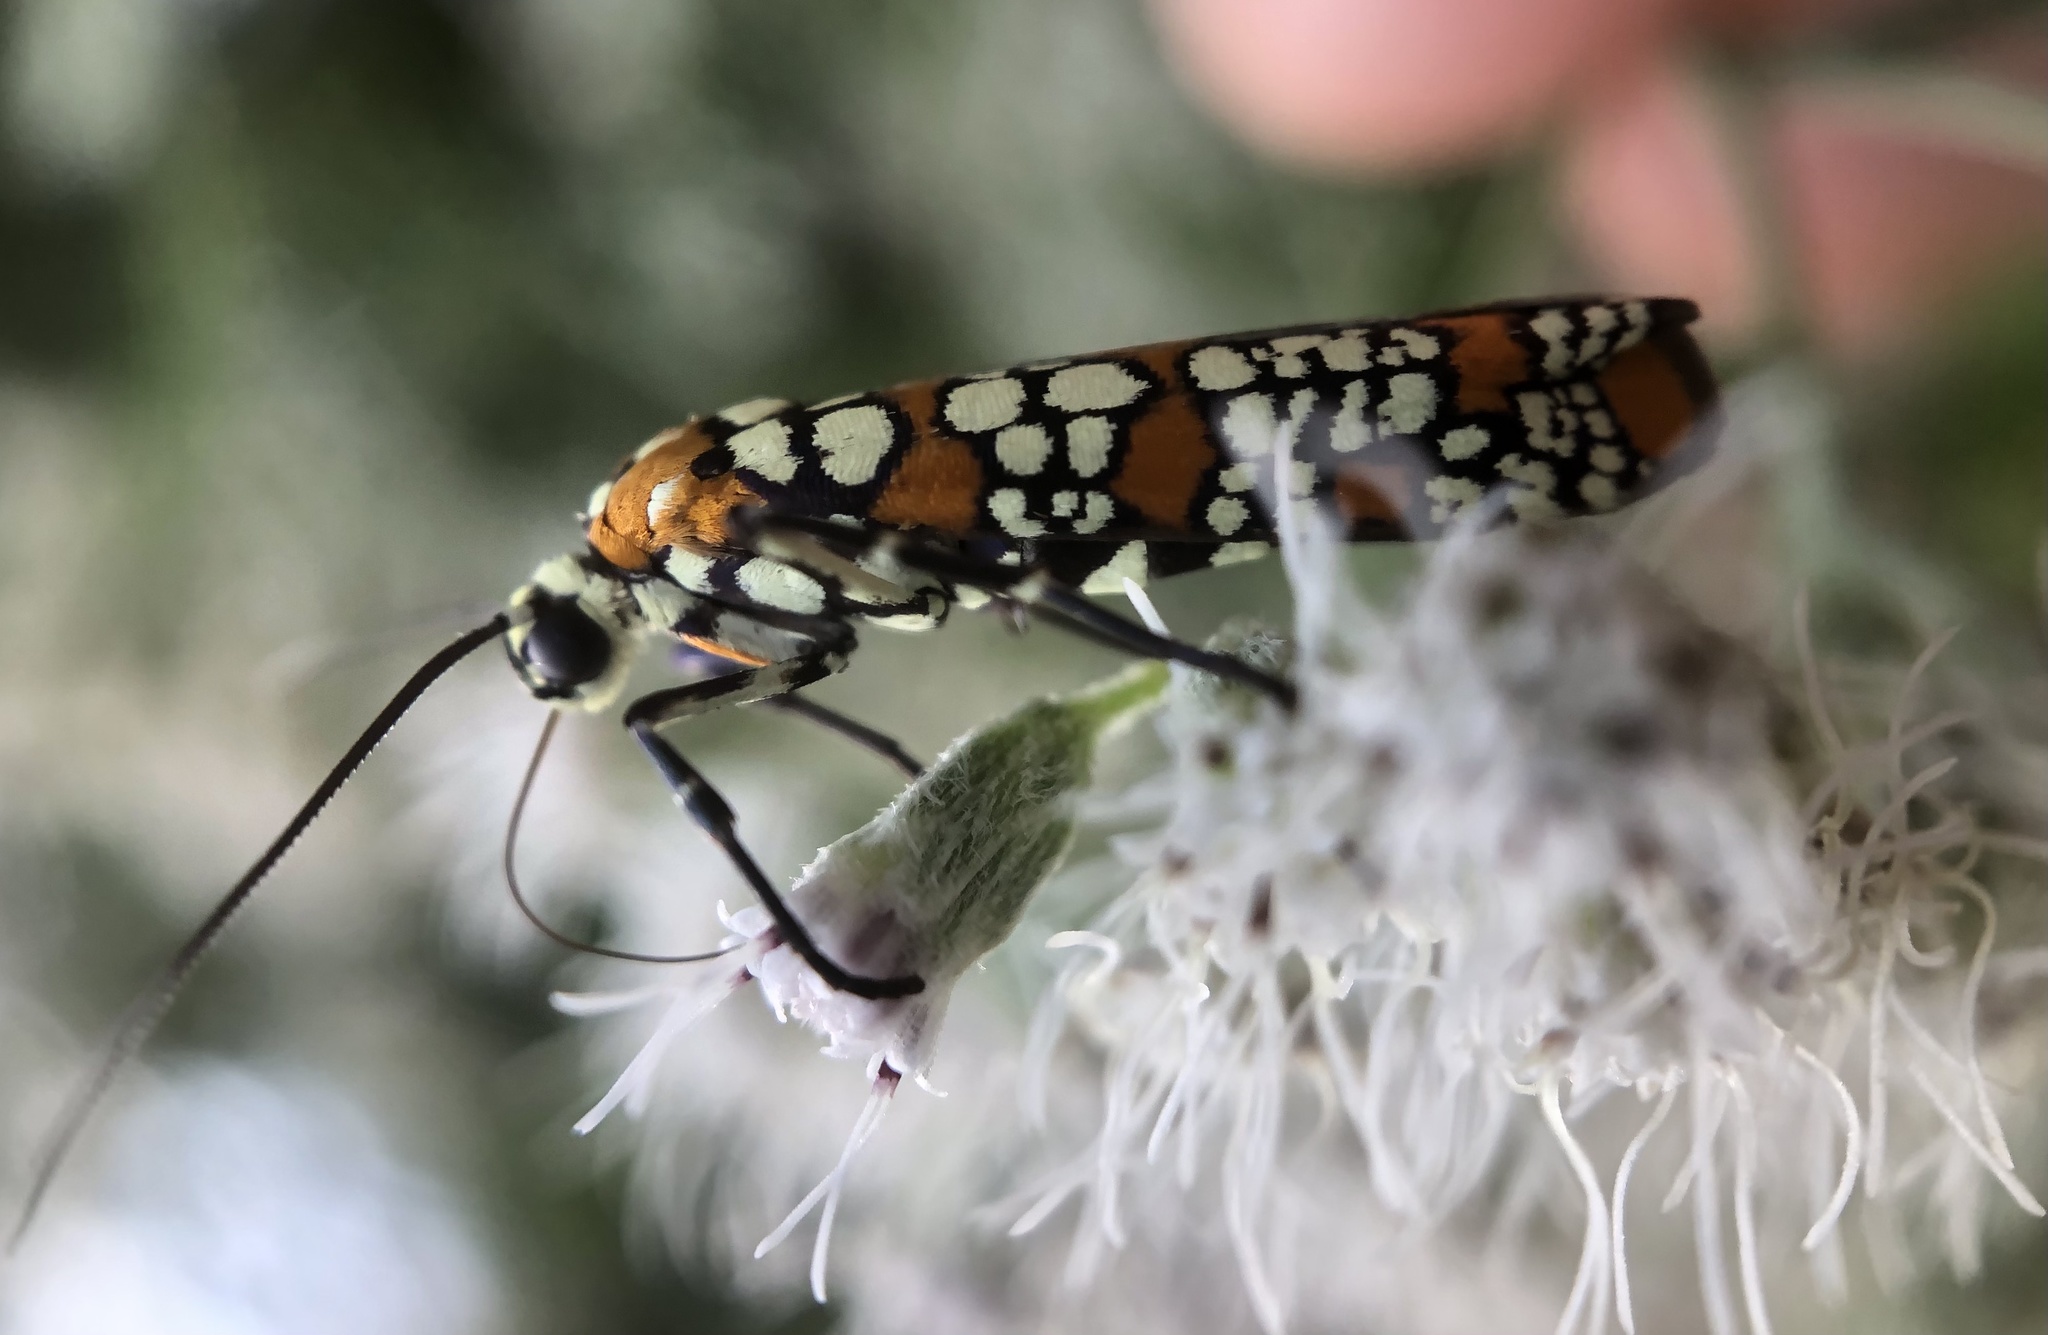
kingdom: Animalia
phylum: Arthropoda
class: Insecta
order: Lepidoptera
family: Attevidae
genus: Atteva
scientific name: Atteva punctella
